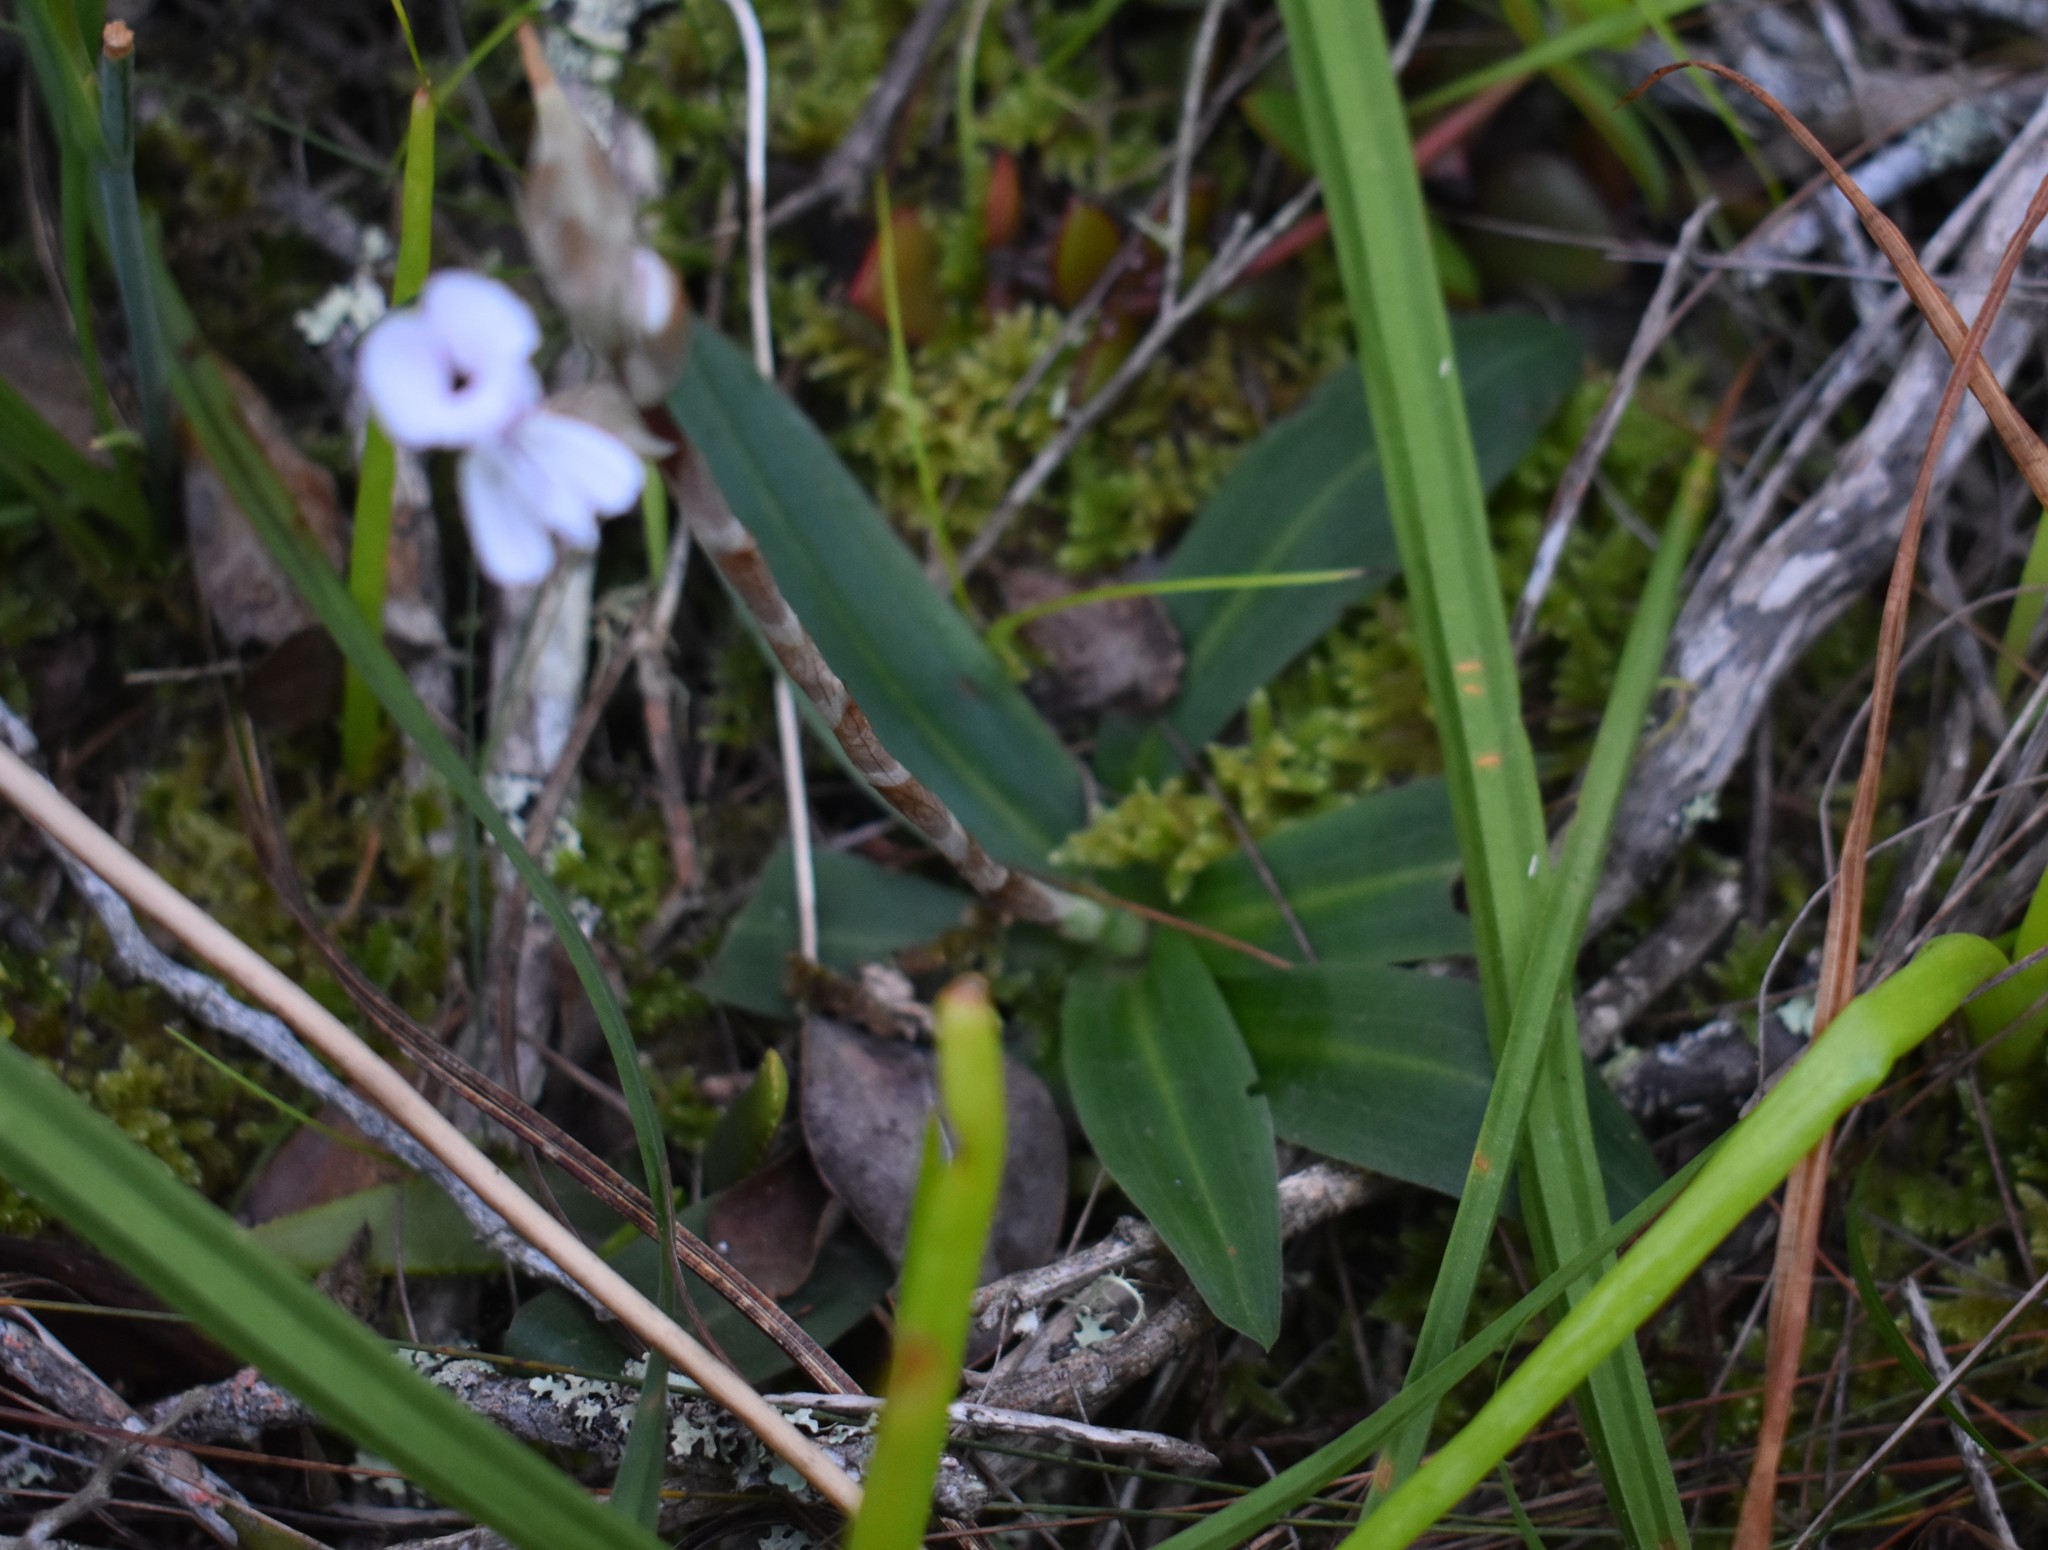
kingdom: Plantae
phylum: Tracheophyta
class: Liliopsida
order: Asparagales
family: Orchidaceae
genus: Disa
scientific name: Disa sagittalis
